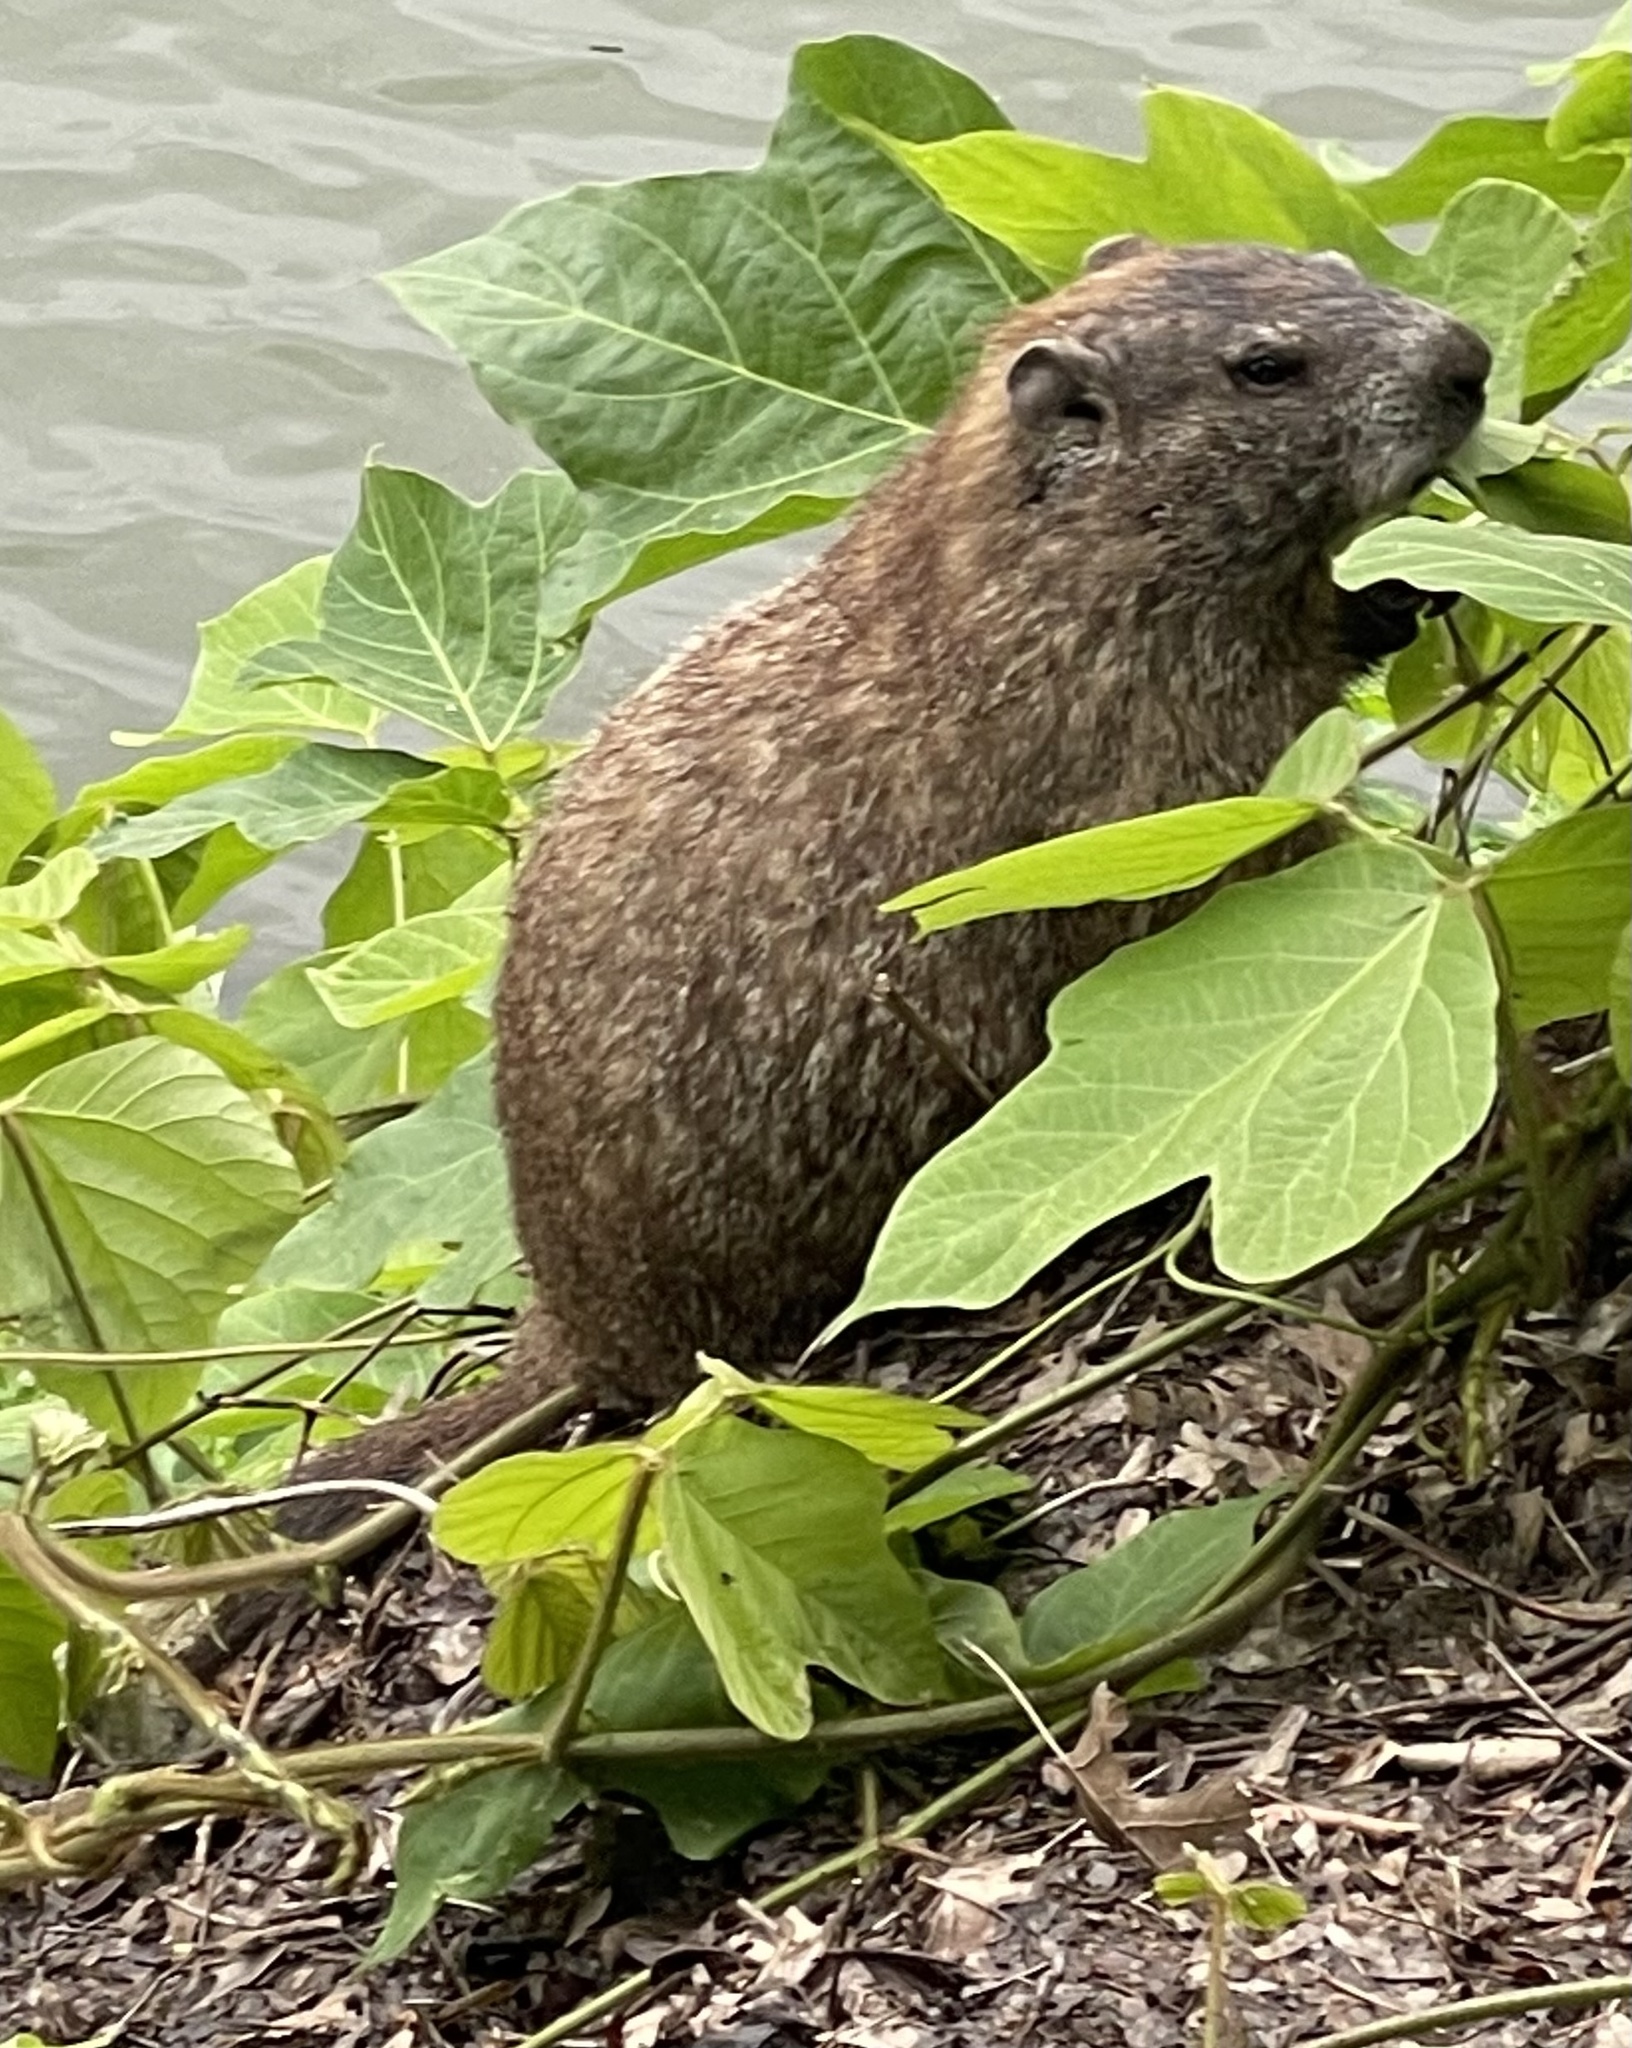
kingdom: Animalia
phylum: Chordata
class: Mammalia
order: Rodentia
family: Sciuridae
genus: Marmota
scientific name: Marmota monax
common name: Groundhog
